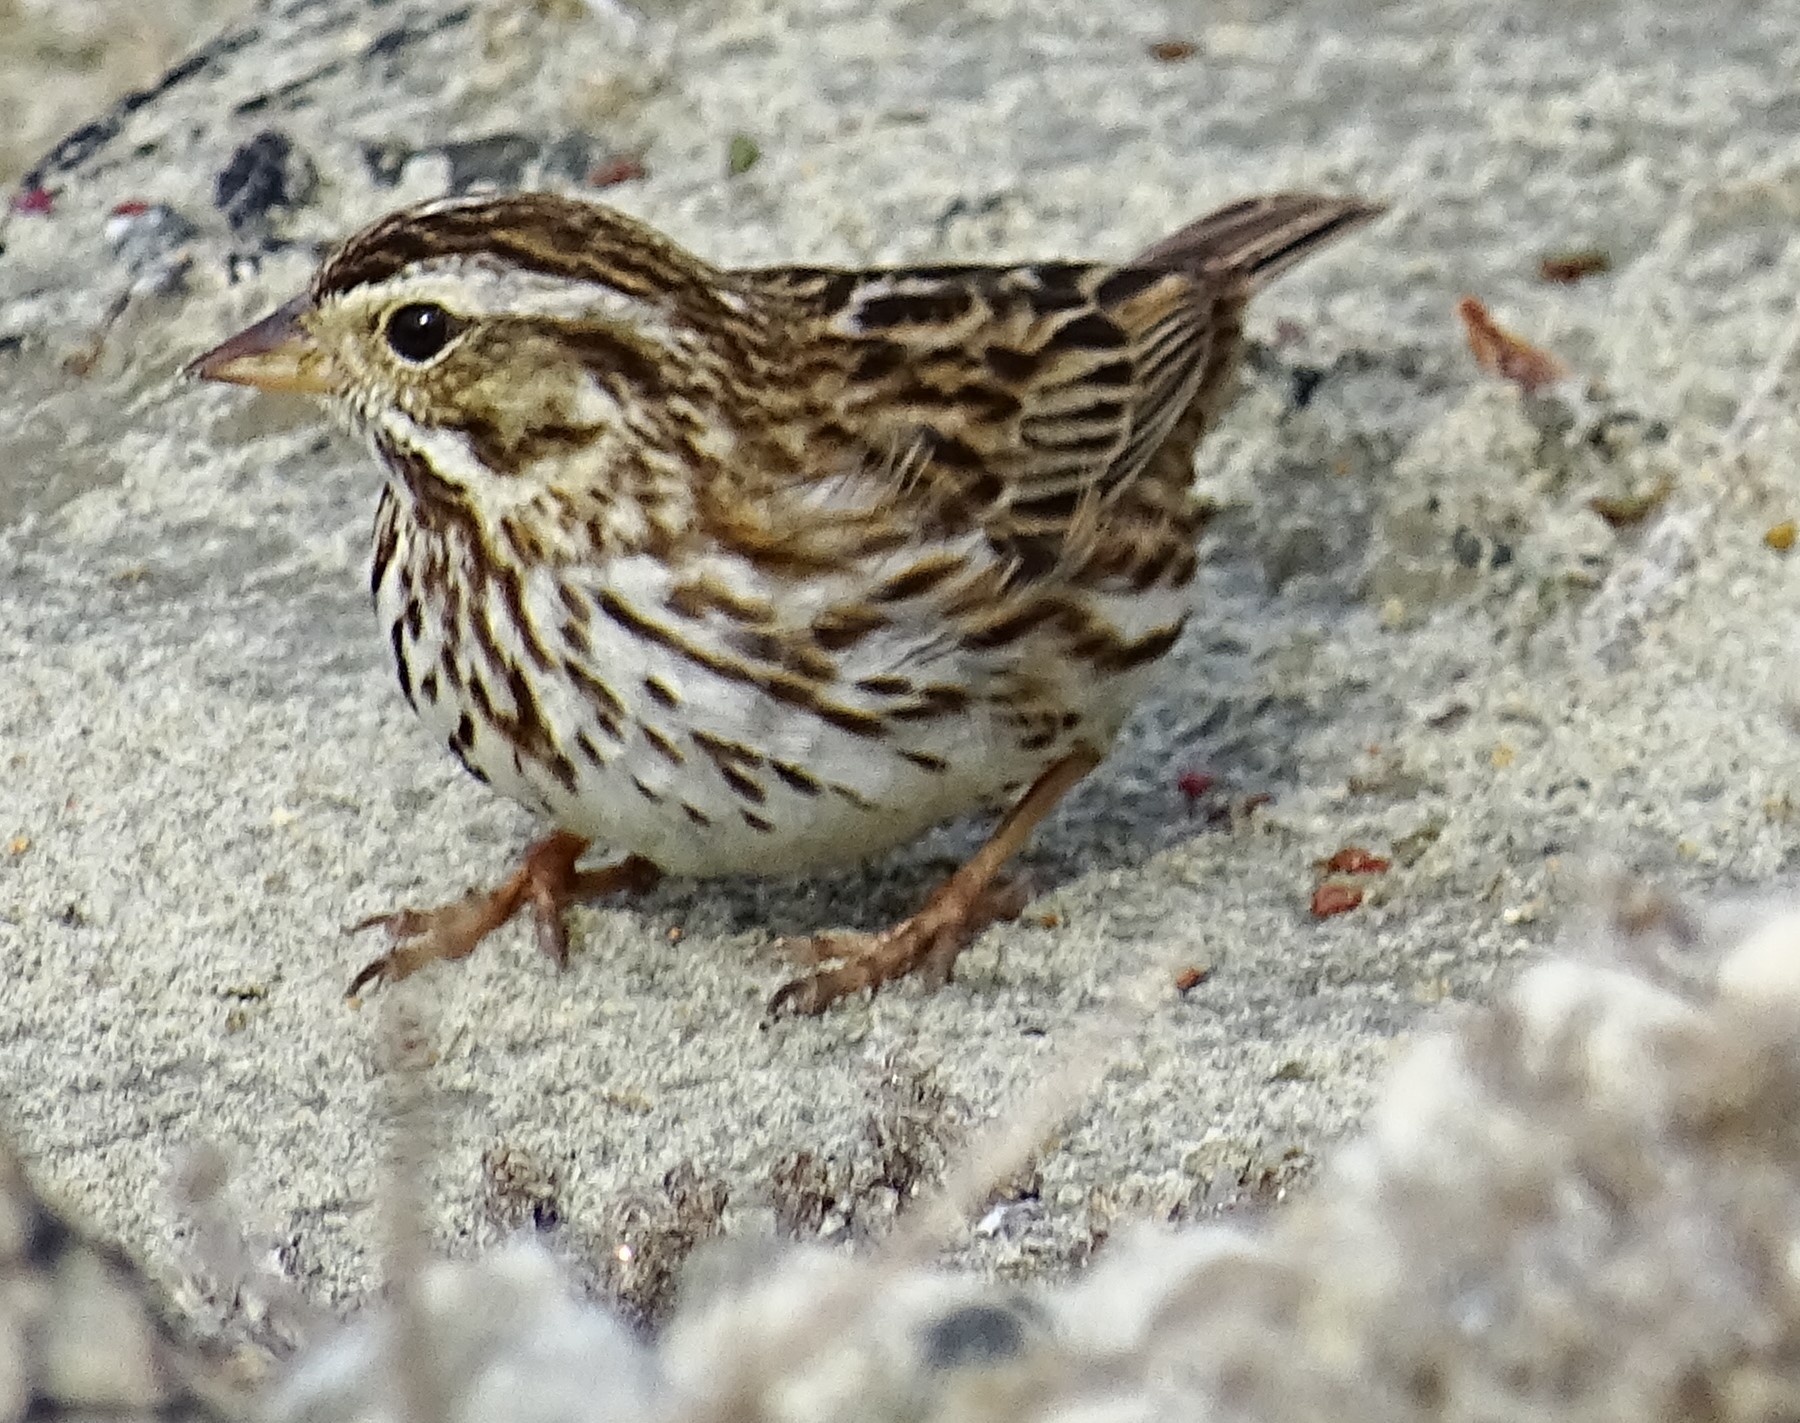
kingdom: Animalia
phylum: Chordata
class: Aves
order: Passeriformes
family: Passerellidae
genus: Passerculus
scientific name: Passerculus sandwichensis
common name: Savannah sparrow
